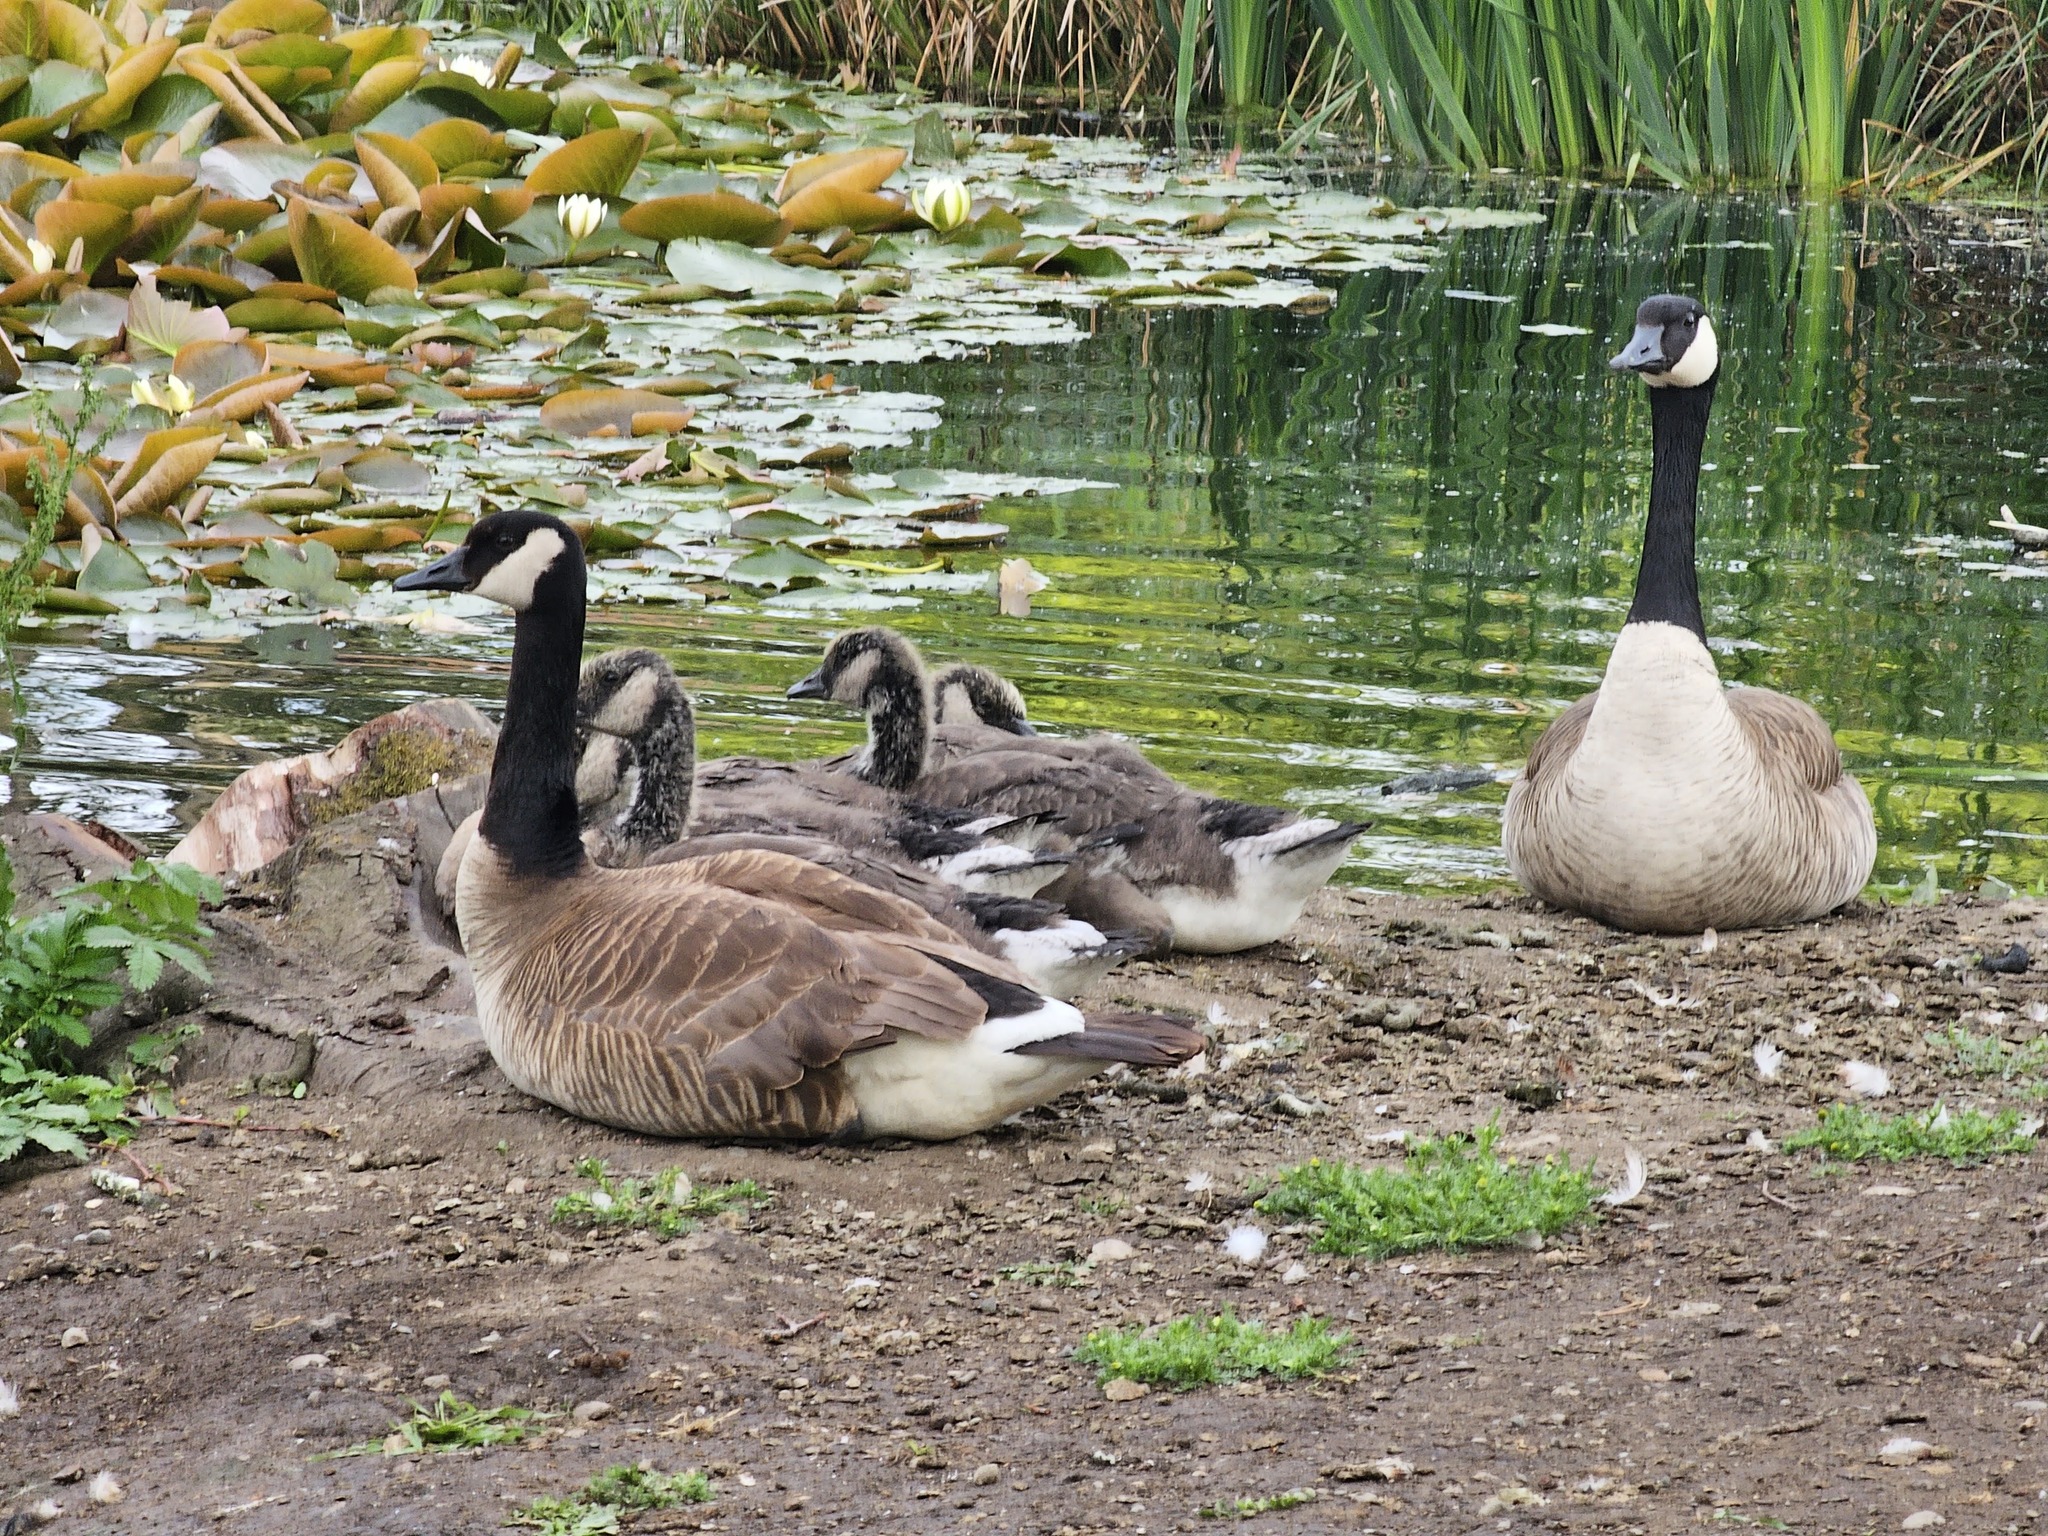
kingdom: Animalia
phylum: Chordata
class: Aves
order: Anseriformes
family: Anatidae
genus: Branta
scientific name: Branta canadensis
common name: Canada goose
